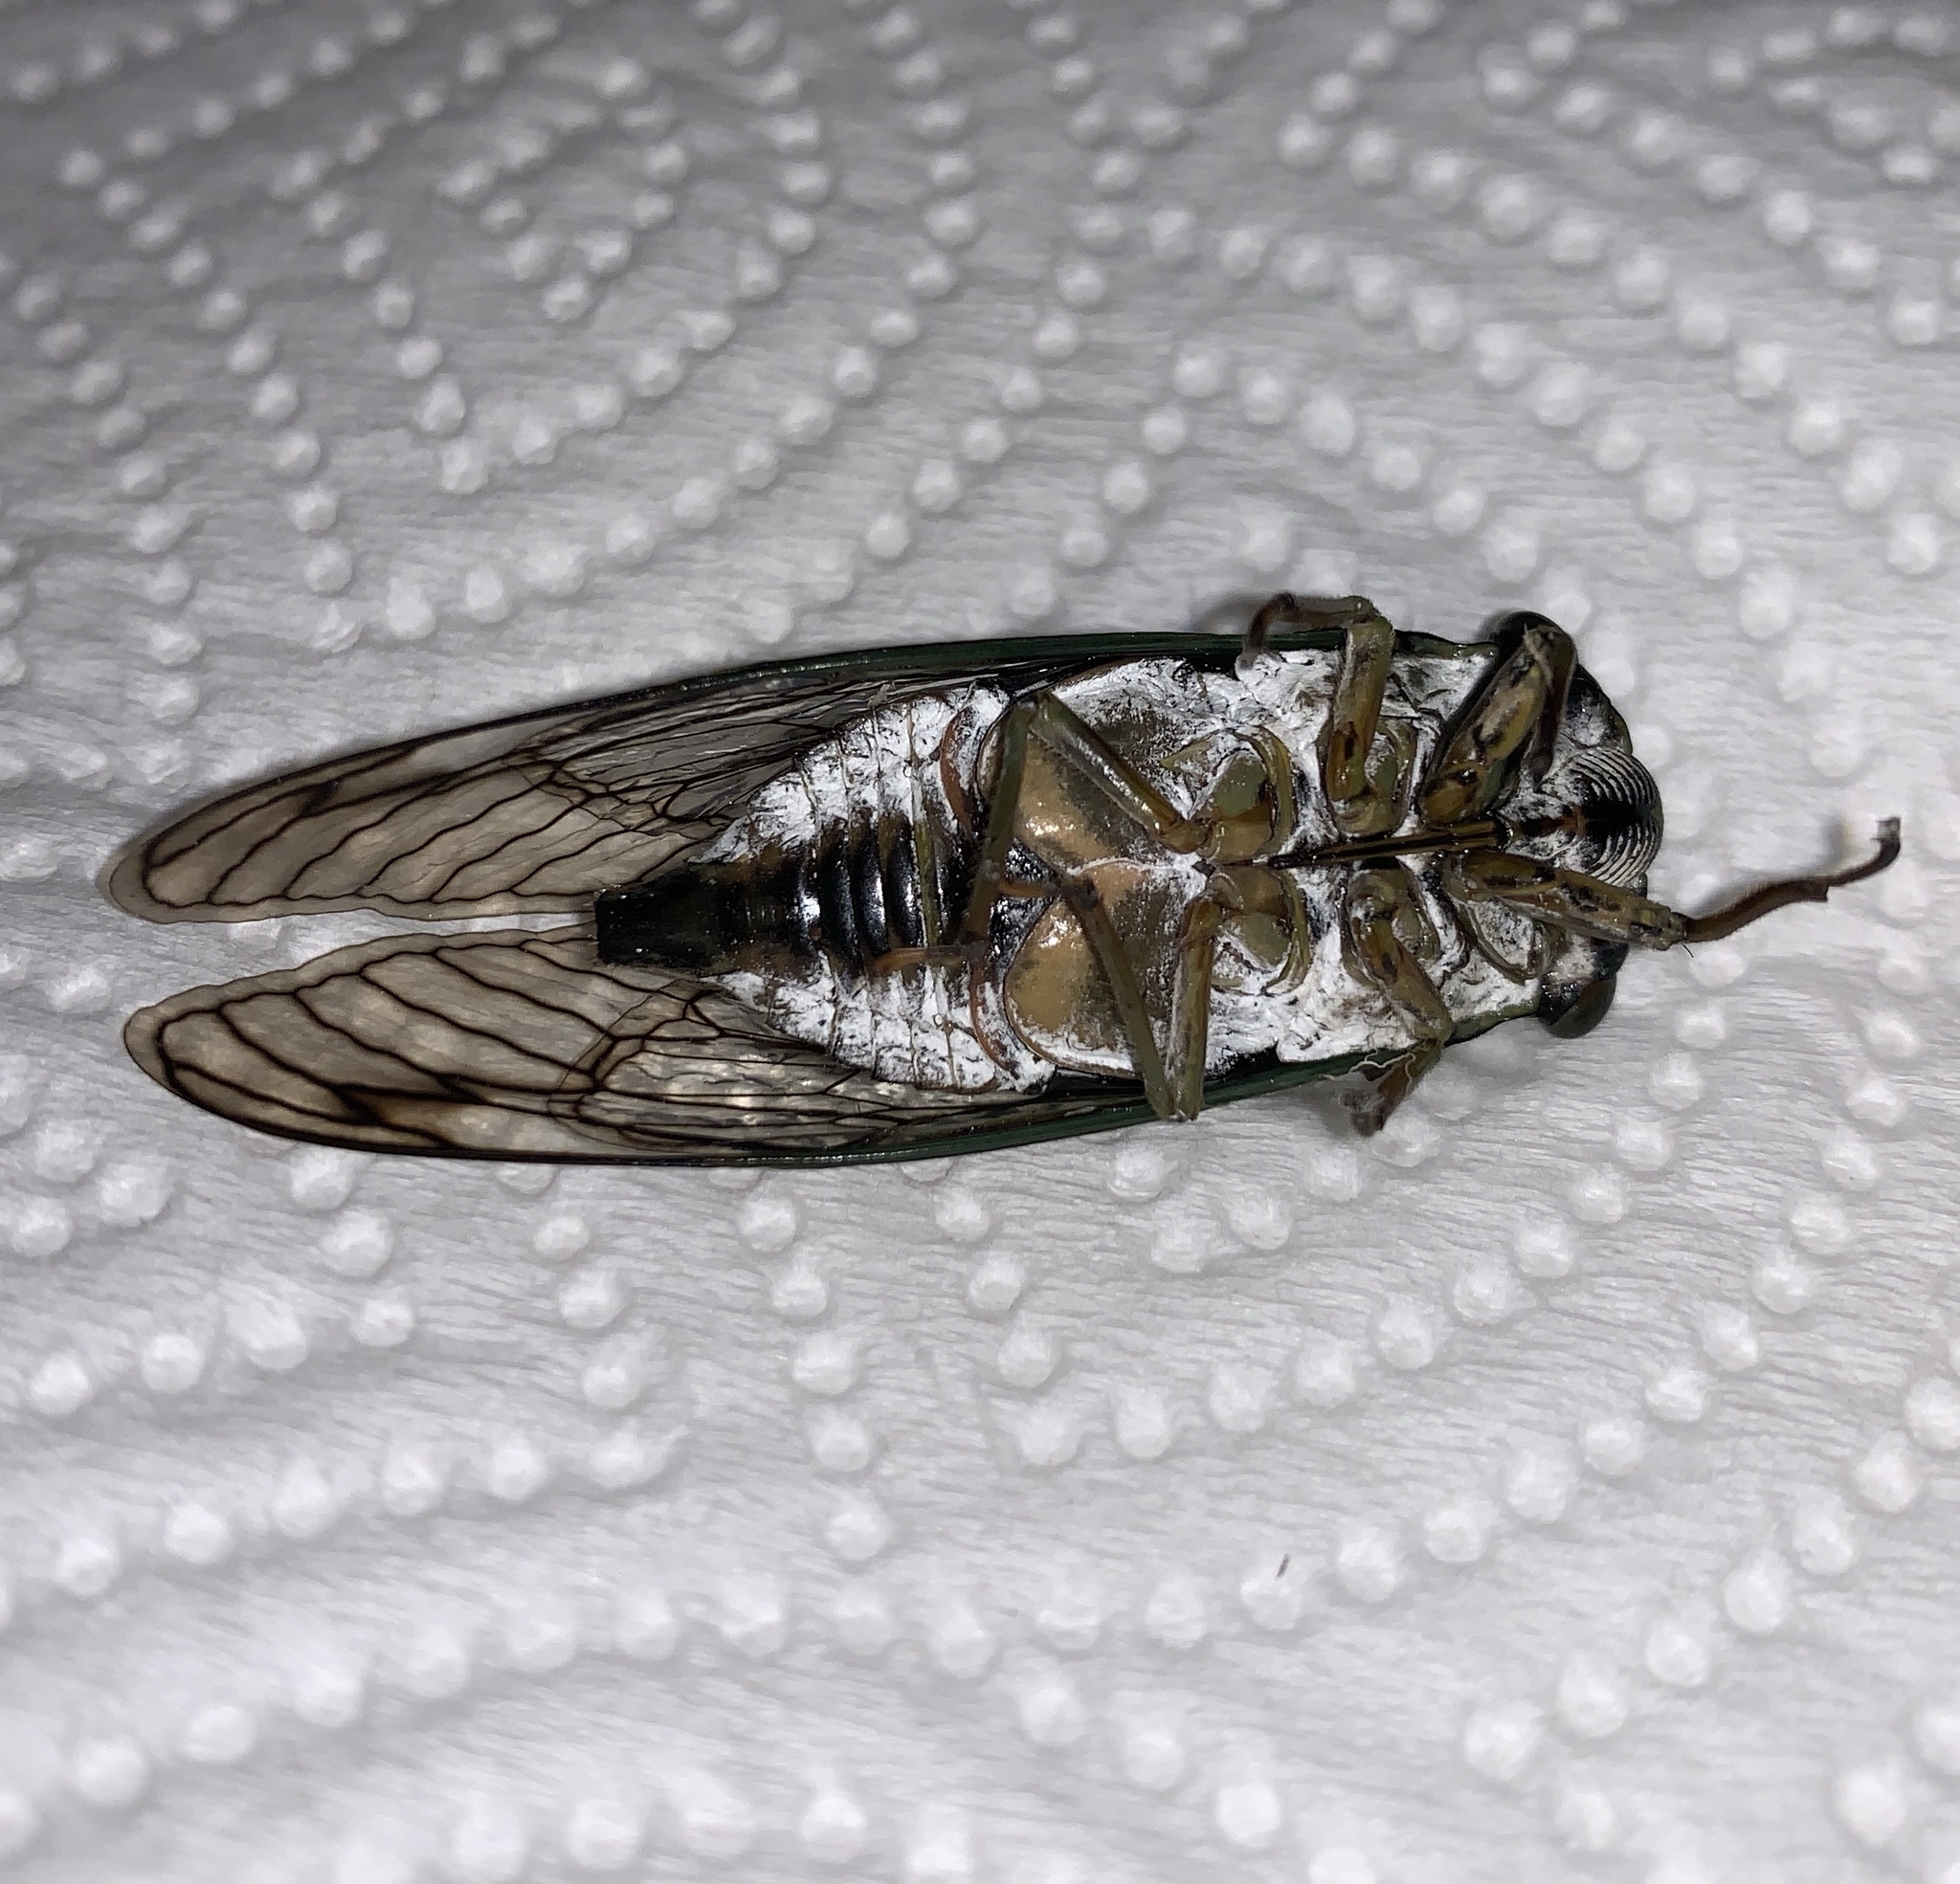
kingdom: Animalia
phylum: Arthropoda
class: Insecta
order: Hemiptera
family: Cicadidae
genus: Neotibicen
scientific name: Neotibicen latifasciatus
